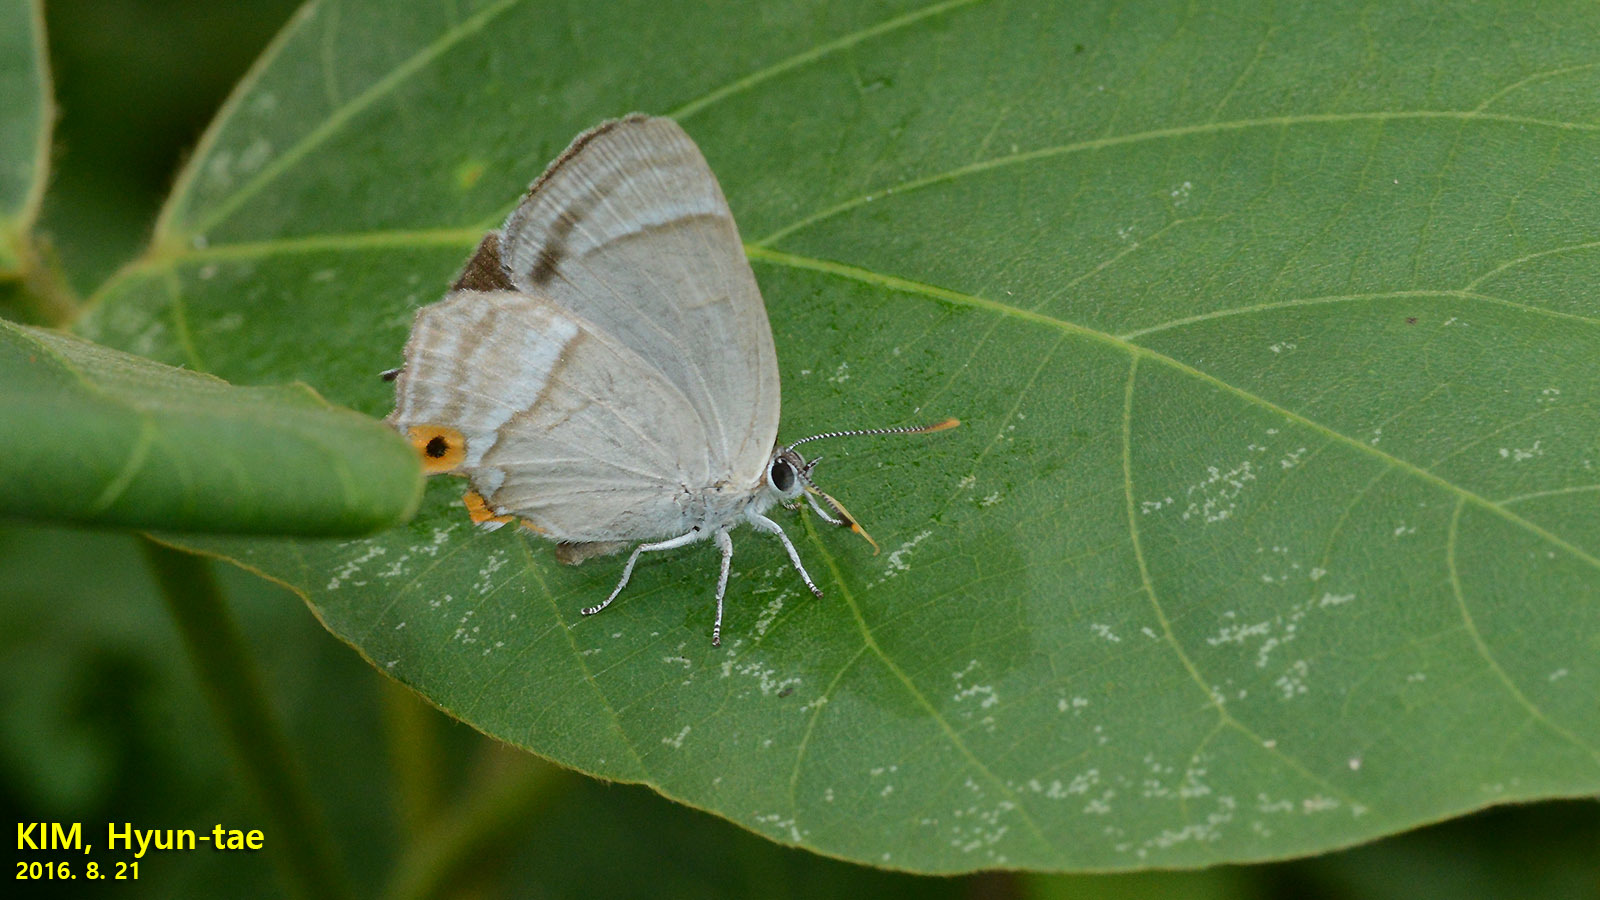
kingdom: Animalia
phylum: Arthropoda
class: Insecta
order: Lepidoptera
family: Lycaenidae
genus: Favonius
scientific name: Favonius cognatus
